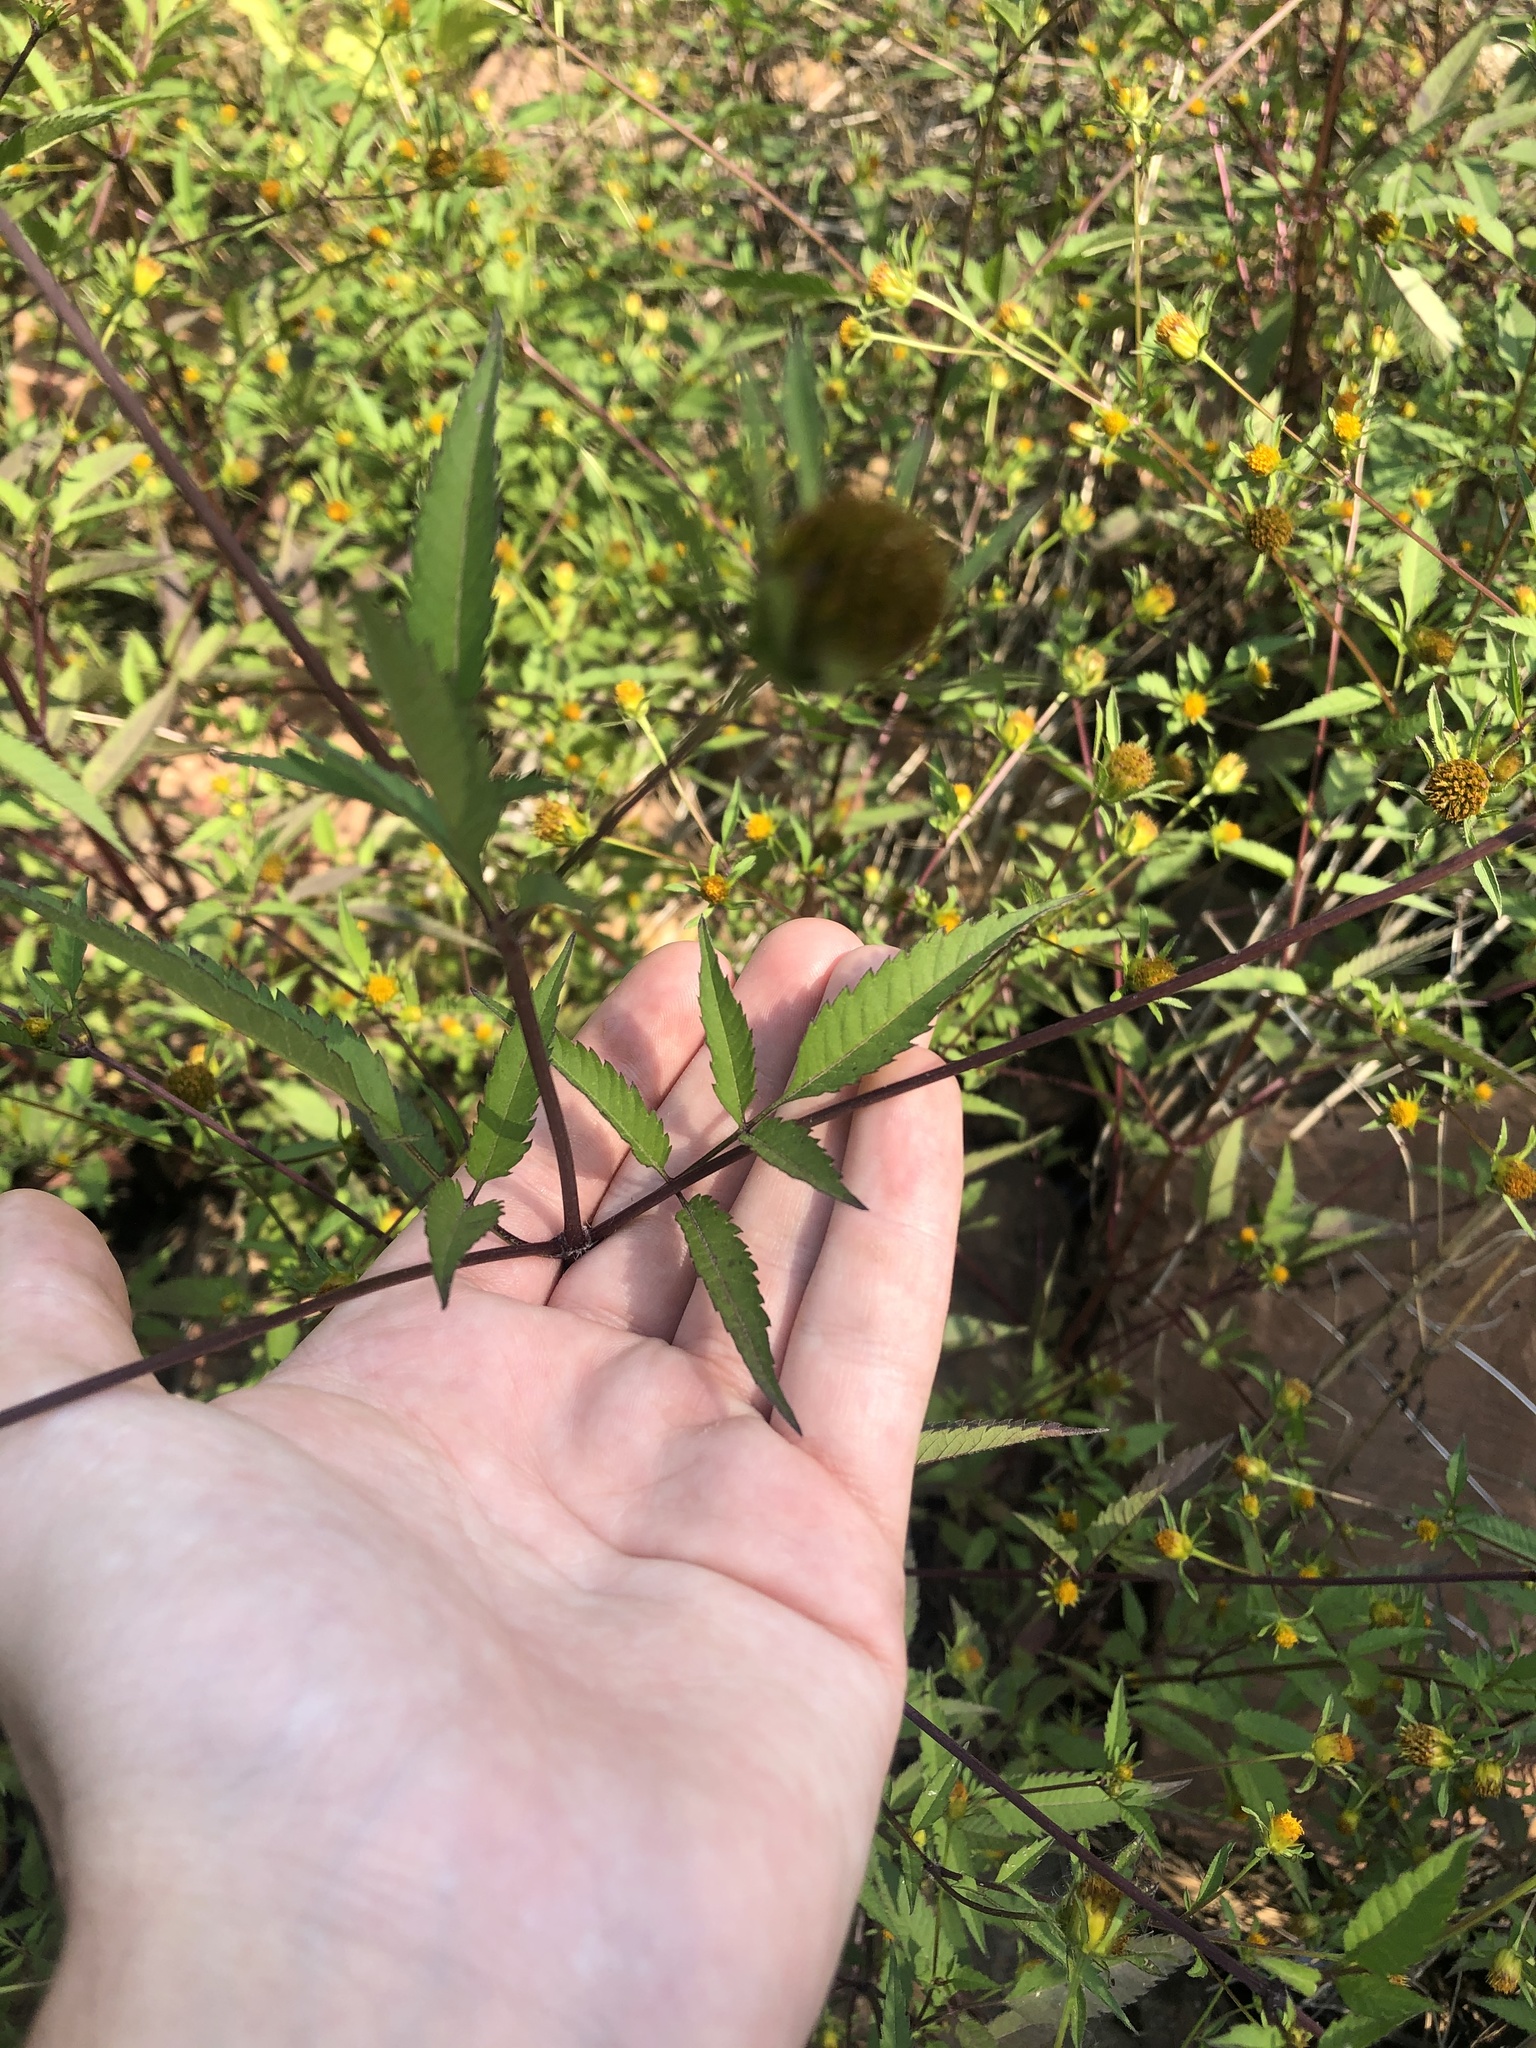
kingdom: Plantae
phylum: Tracheophyta
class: Magnoliopsida
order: Asterales
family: Asteraceae
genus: Bidens
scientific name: Bidens frondosa
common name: Beggarticks
